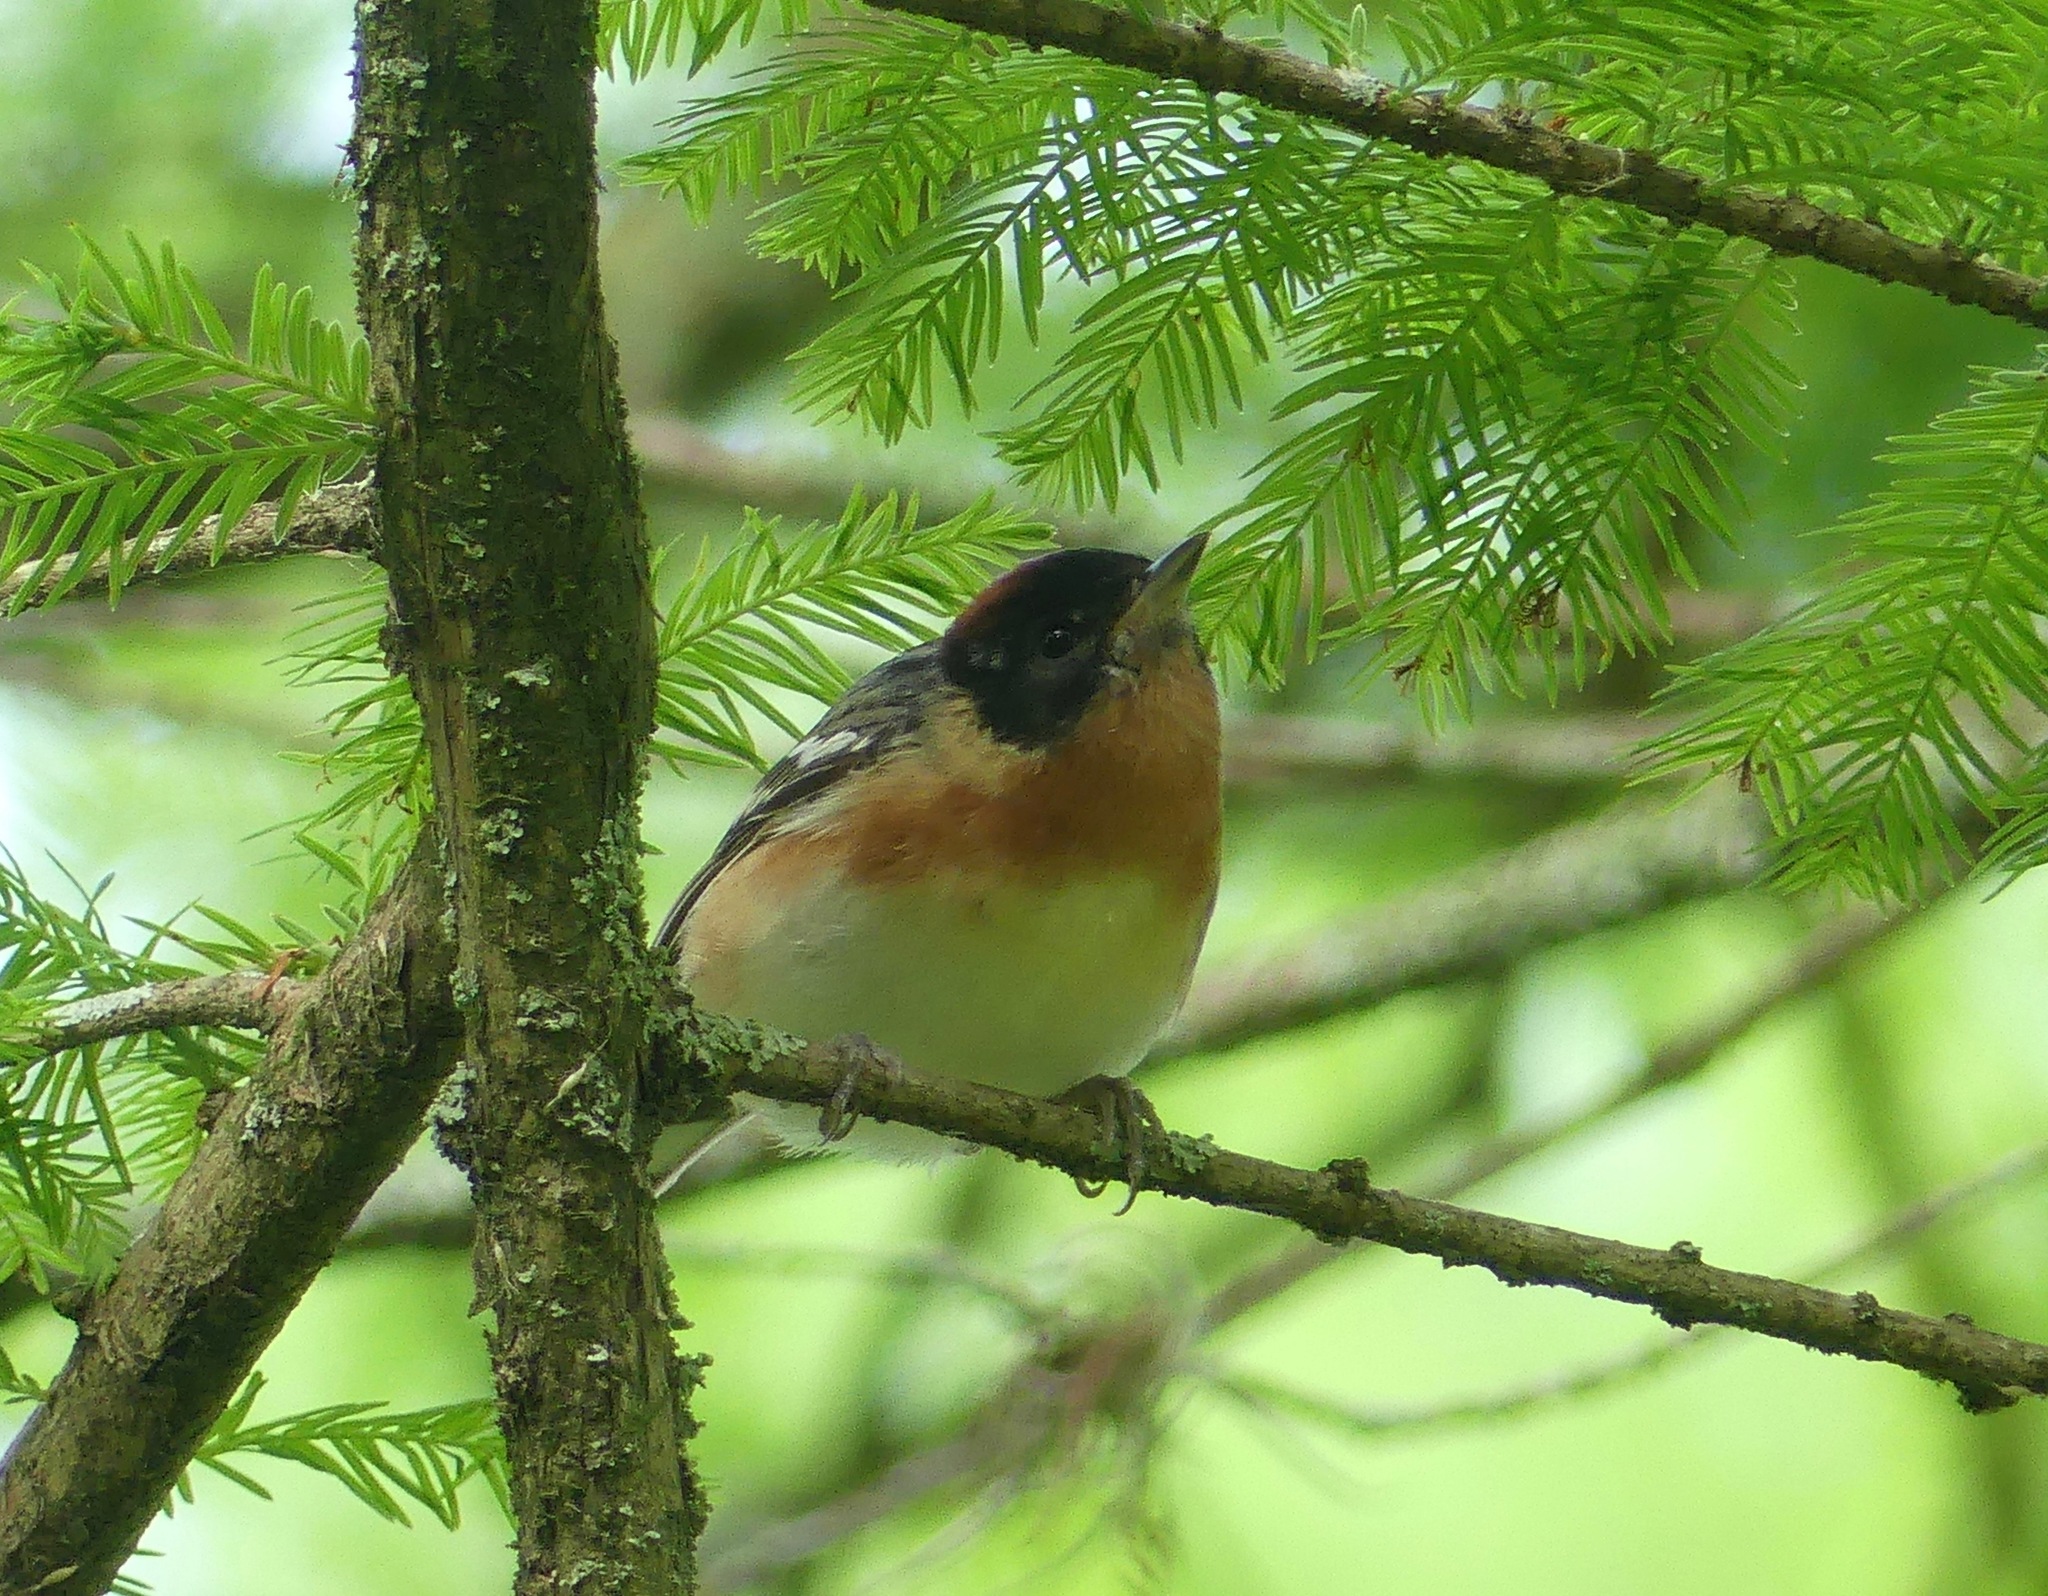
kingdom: Animalia
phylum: Chordata
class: Aves
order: Passeriformes
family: Parulidae
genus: Setophaga
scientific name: Setophaga castanea
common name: Bay-breasted warbler
